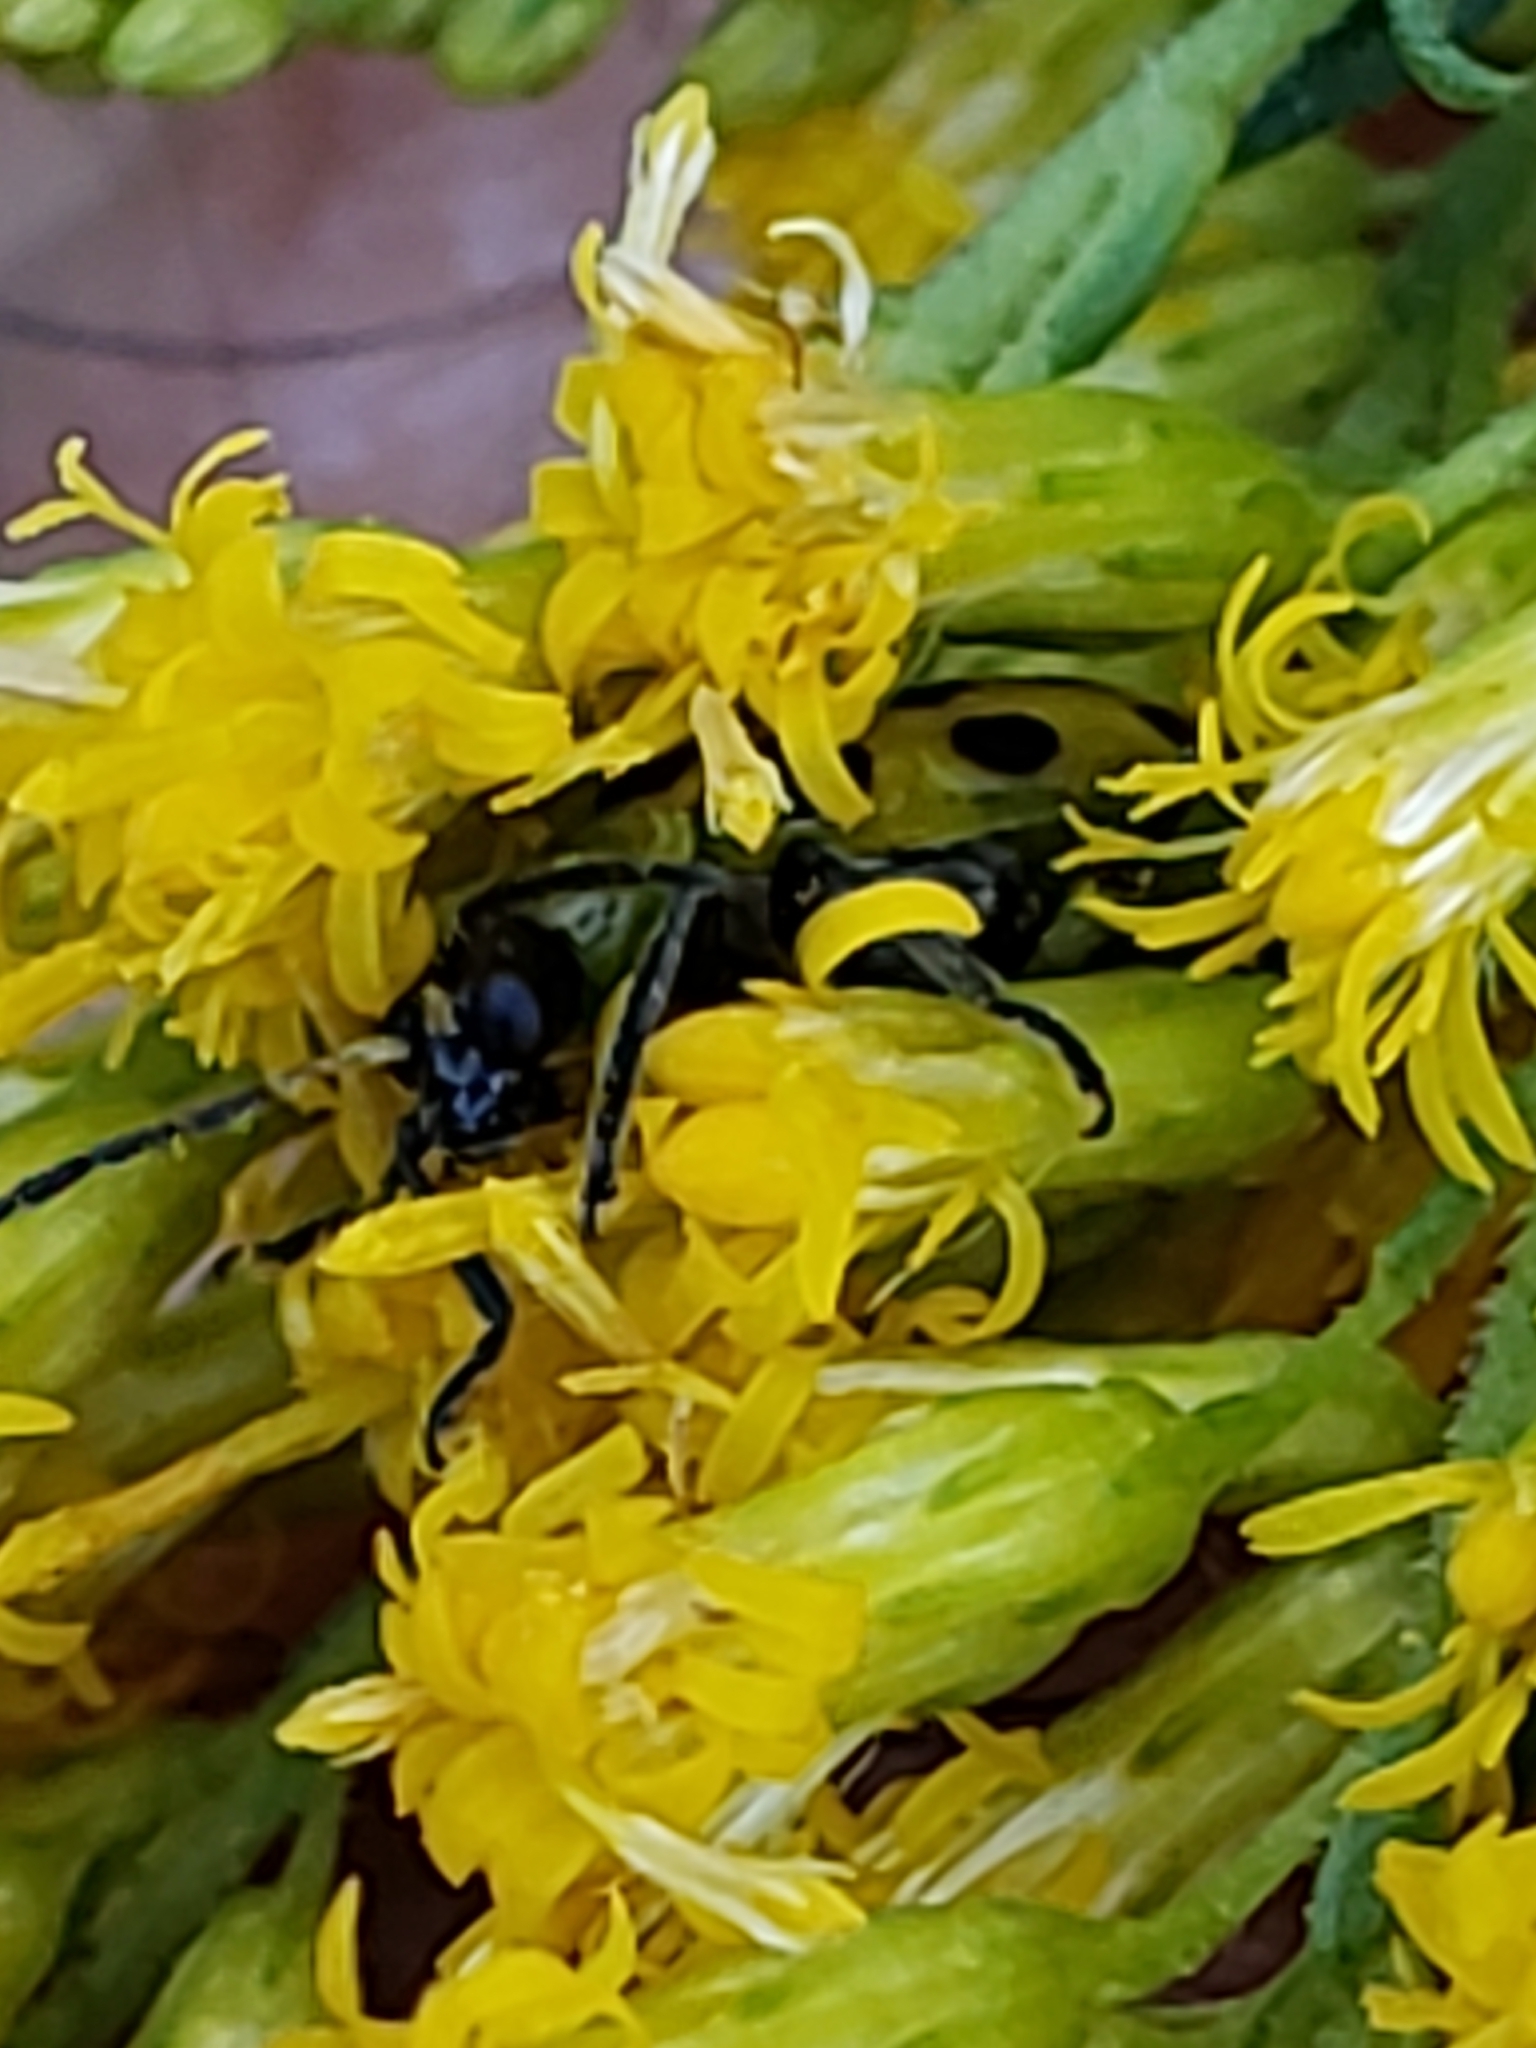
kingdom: Animalia
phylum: Arthropoda
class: Insecta
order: Coleoptera
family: Chrysomelidae
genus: Diabrotica
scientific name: Diabrotica undecimpunctata
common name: Spotted cucumber beetle
